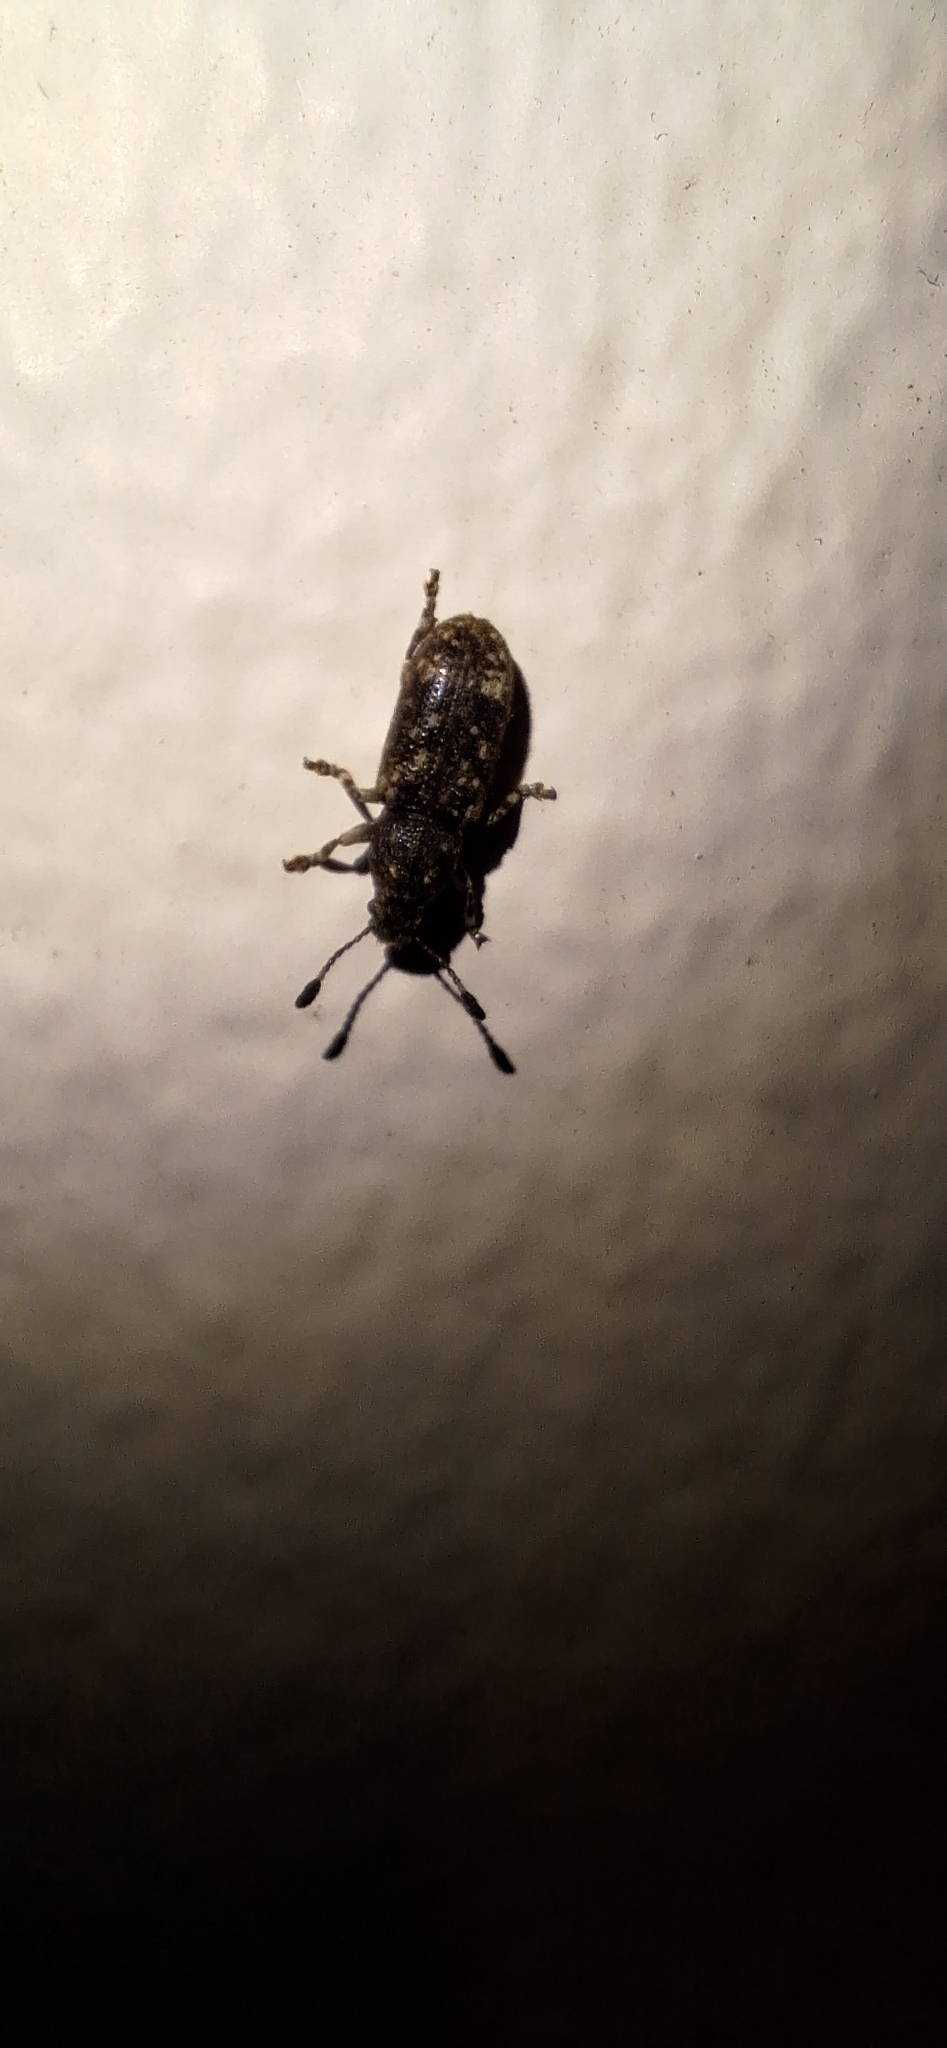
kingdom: Animalia
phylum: Arthropoda
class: Insecta
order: Coleoptera
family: Anthribidae
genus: Eucorynus
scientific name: Eucorynus crassicornis
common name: Fungus weevil
